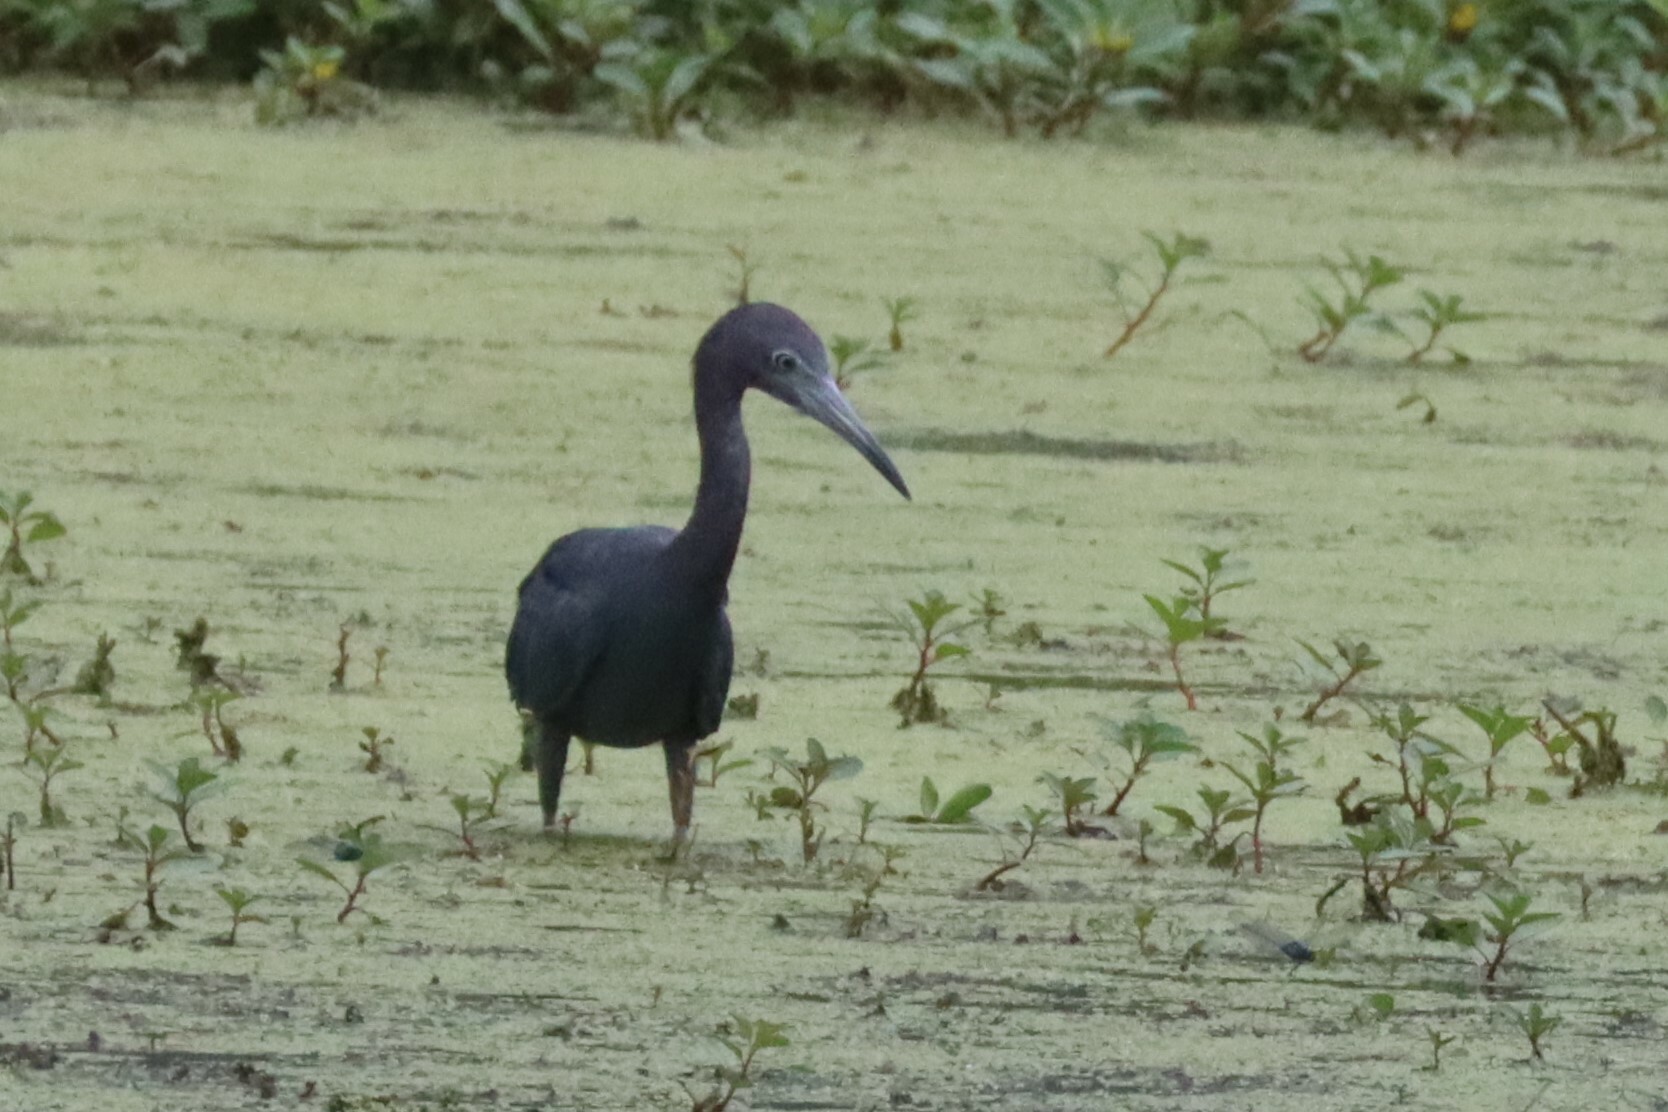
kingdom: Animalia
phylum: Chordata
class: Aves
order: Pelecaniformes
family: Ardeidae
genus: Egretta
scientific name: Egretta caerulea
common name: Little blue heron
